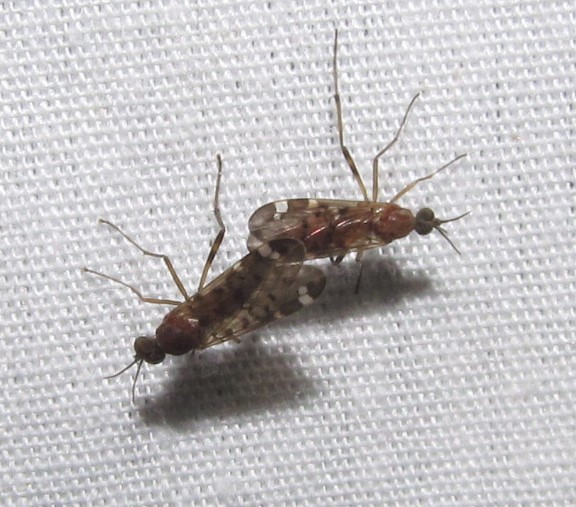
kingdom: Animalia
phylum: Arthropoda
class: Insecta
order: Diptera
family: Anisopodidae
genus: Sylvicola
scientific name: Sylvicola alternata
